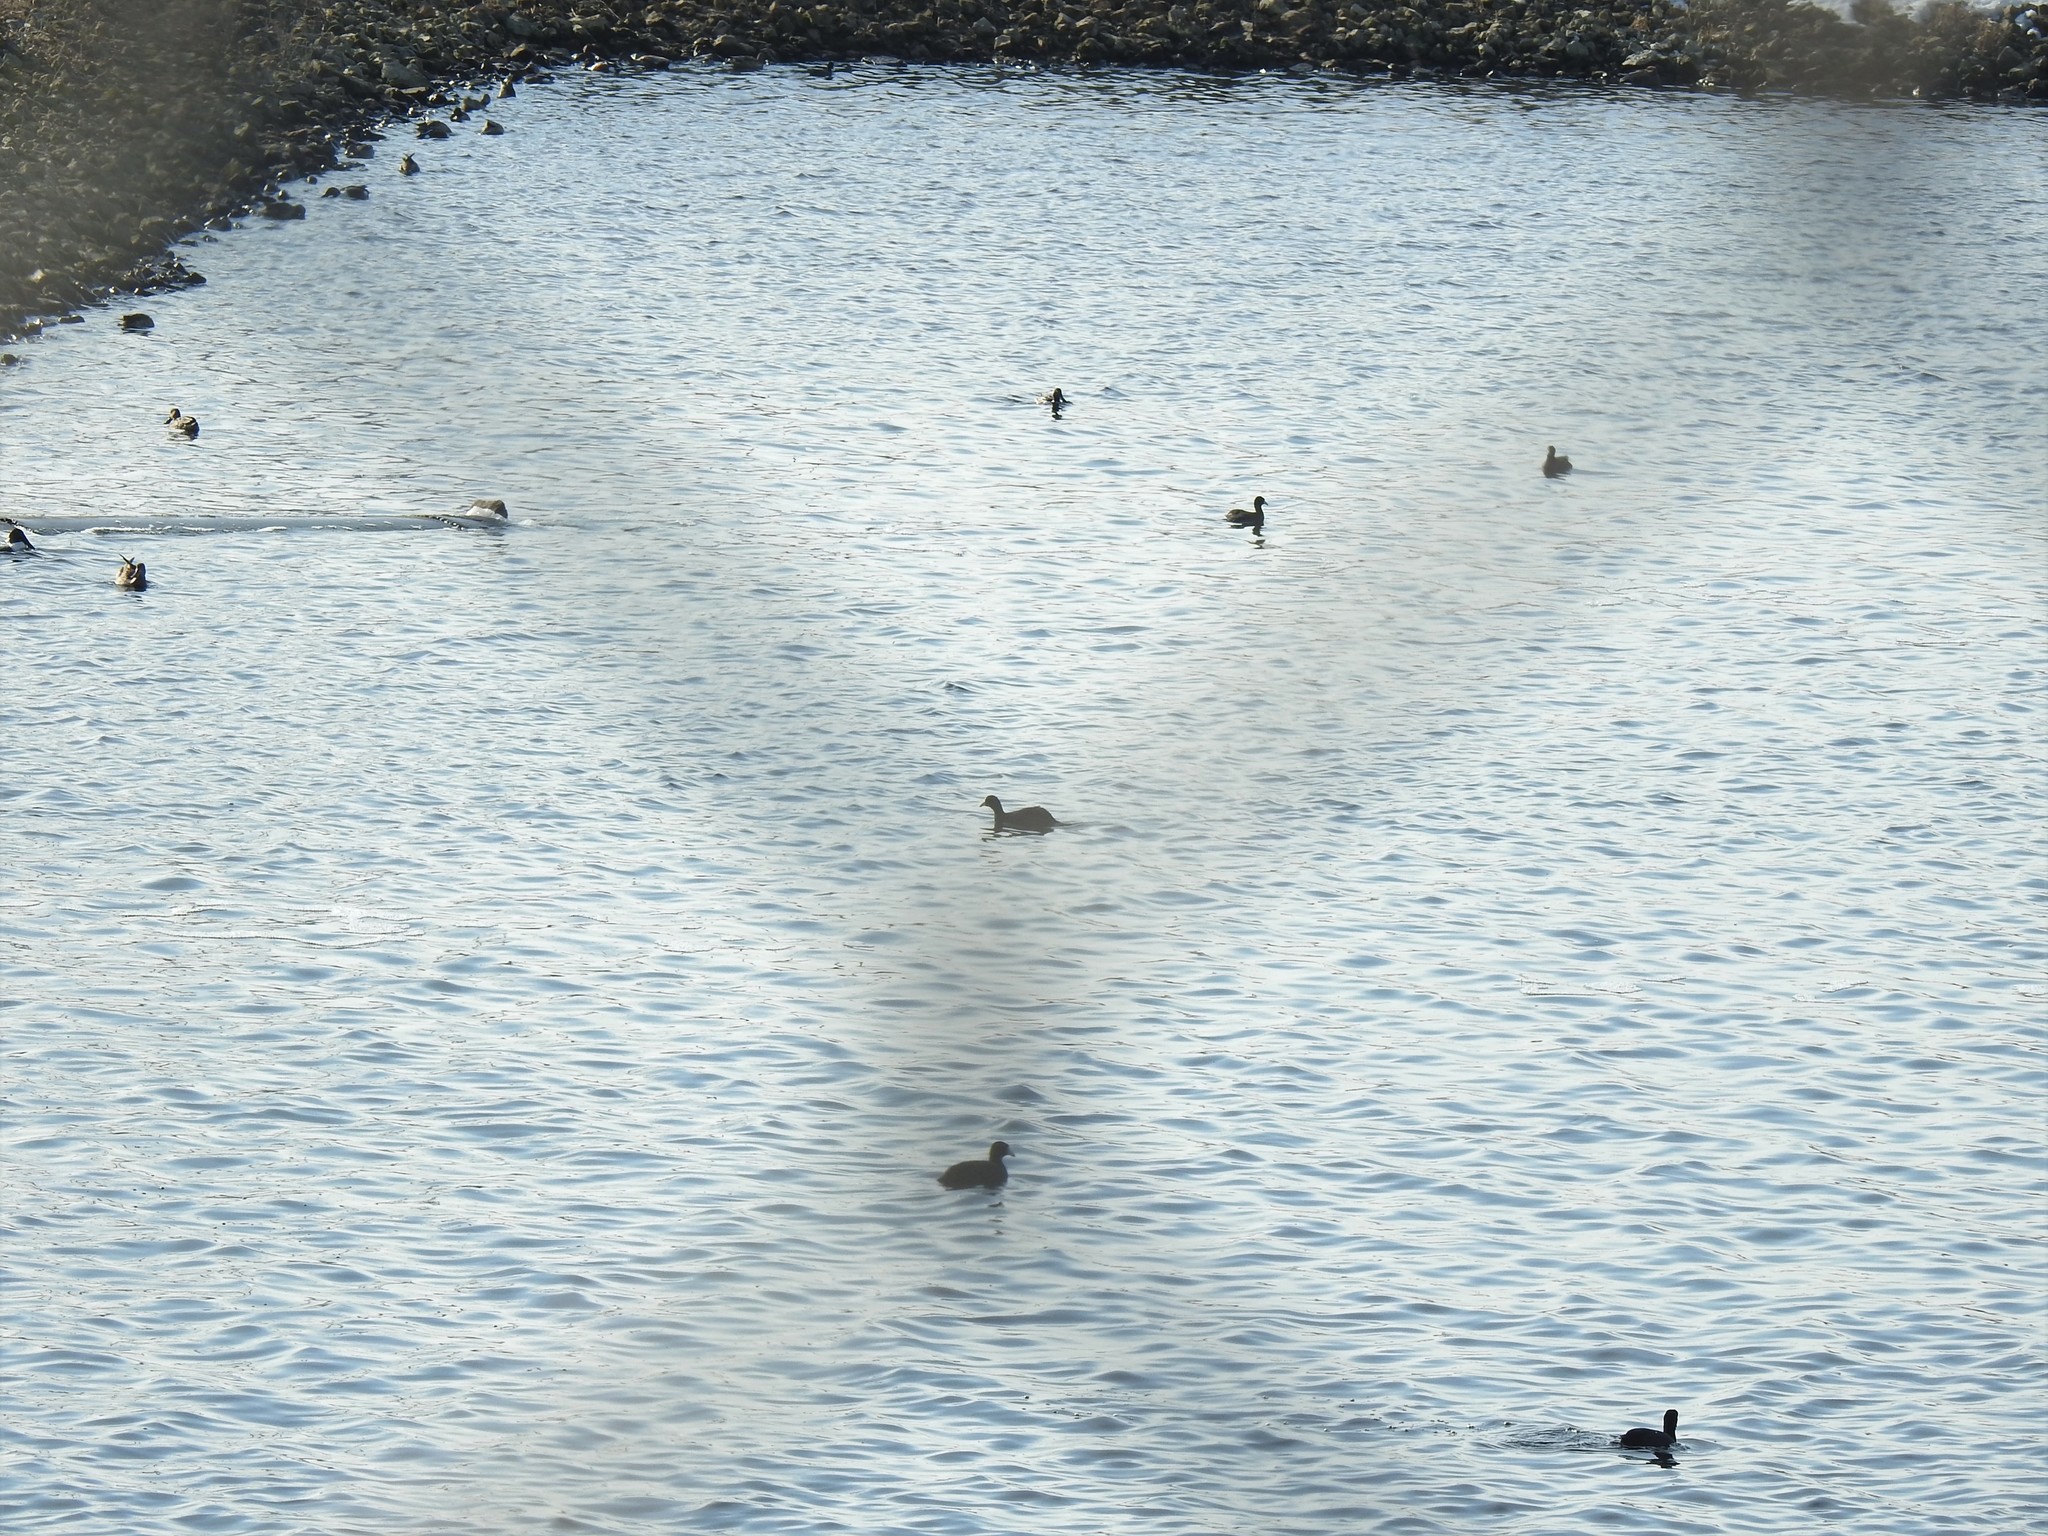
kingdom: Animalia
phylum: Chordata
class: Aves
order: Gruiformes
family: Rallidae
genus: Fulica
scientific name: Fulica americana
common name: American coot
